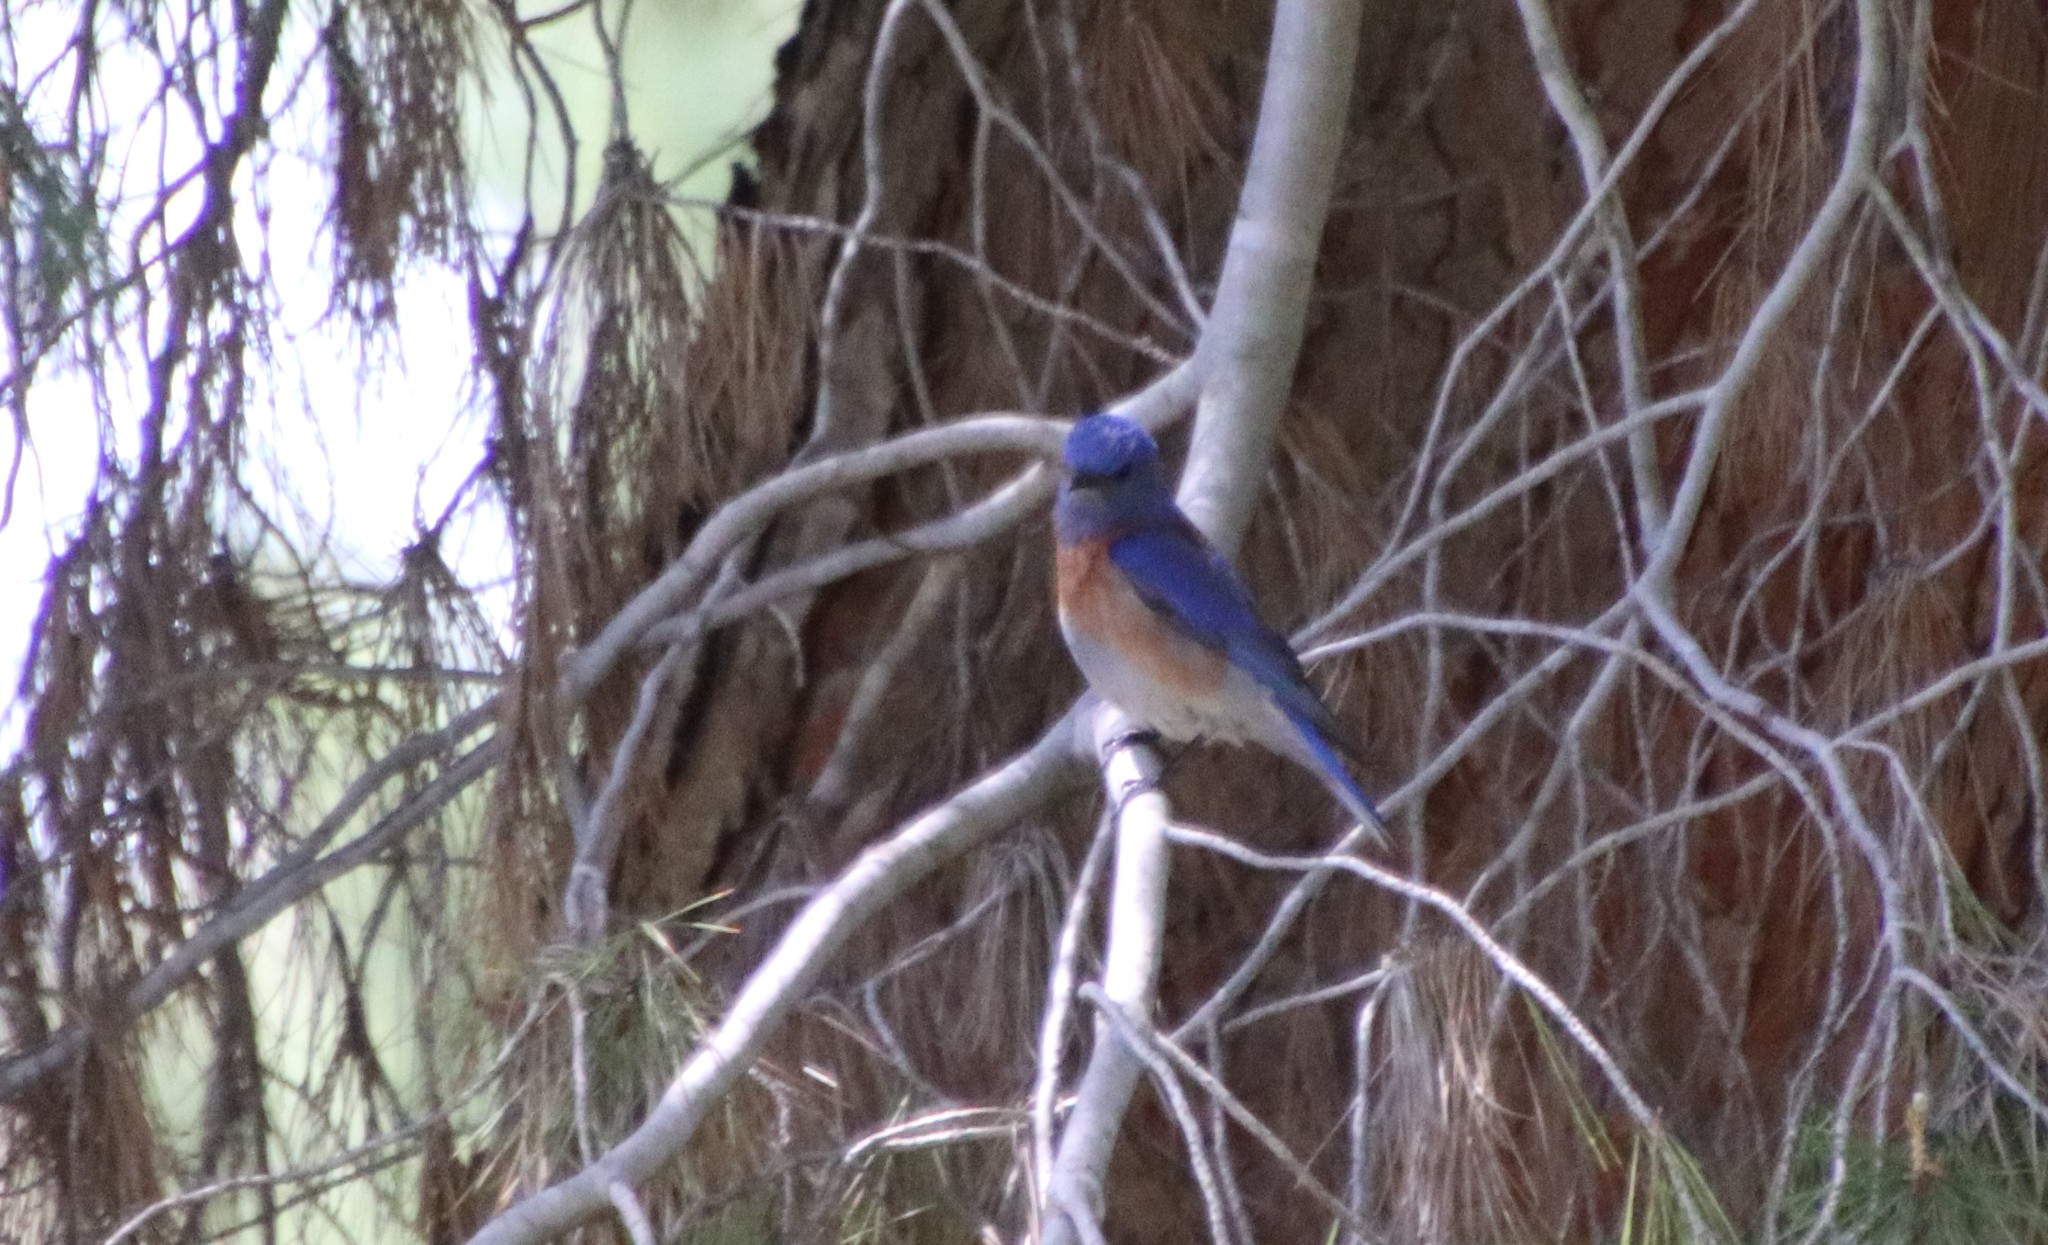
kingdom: Animalia
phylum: Chordata
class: Aves
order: Passeriformes
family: Turdidae
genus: Sialia
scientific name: Sialia mexicana
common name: Western bluebird
